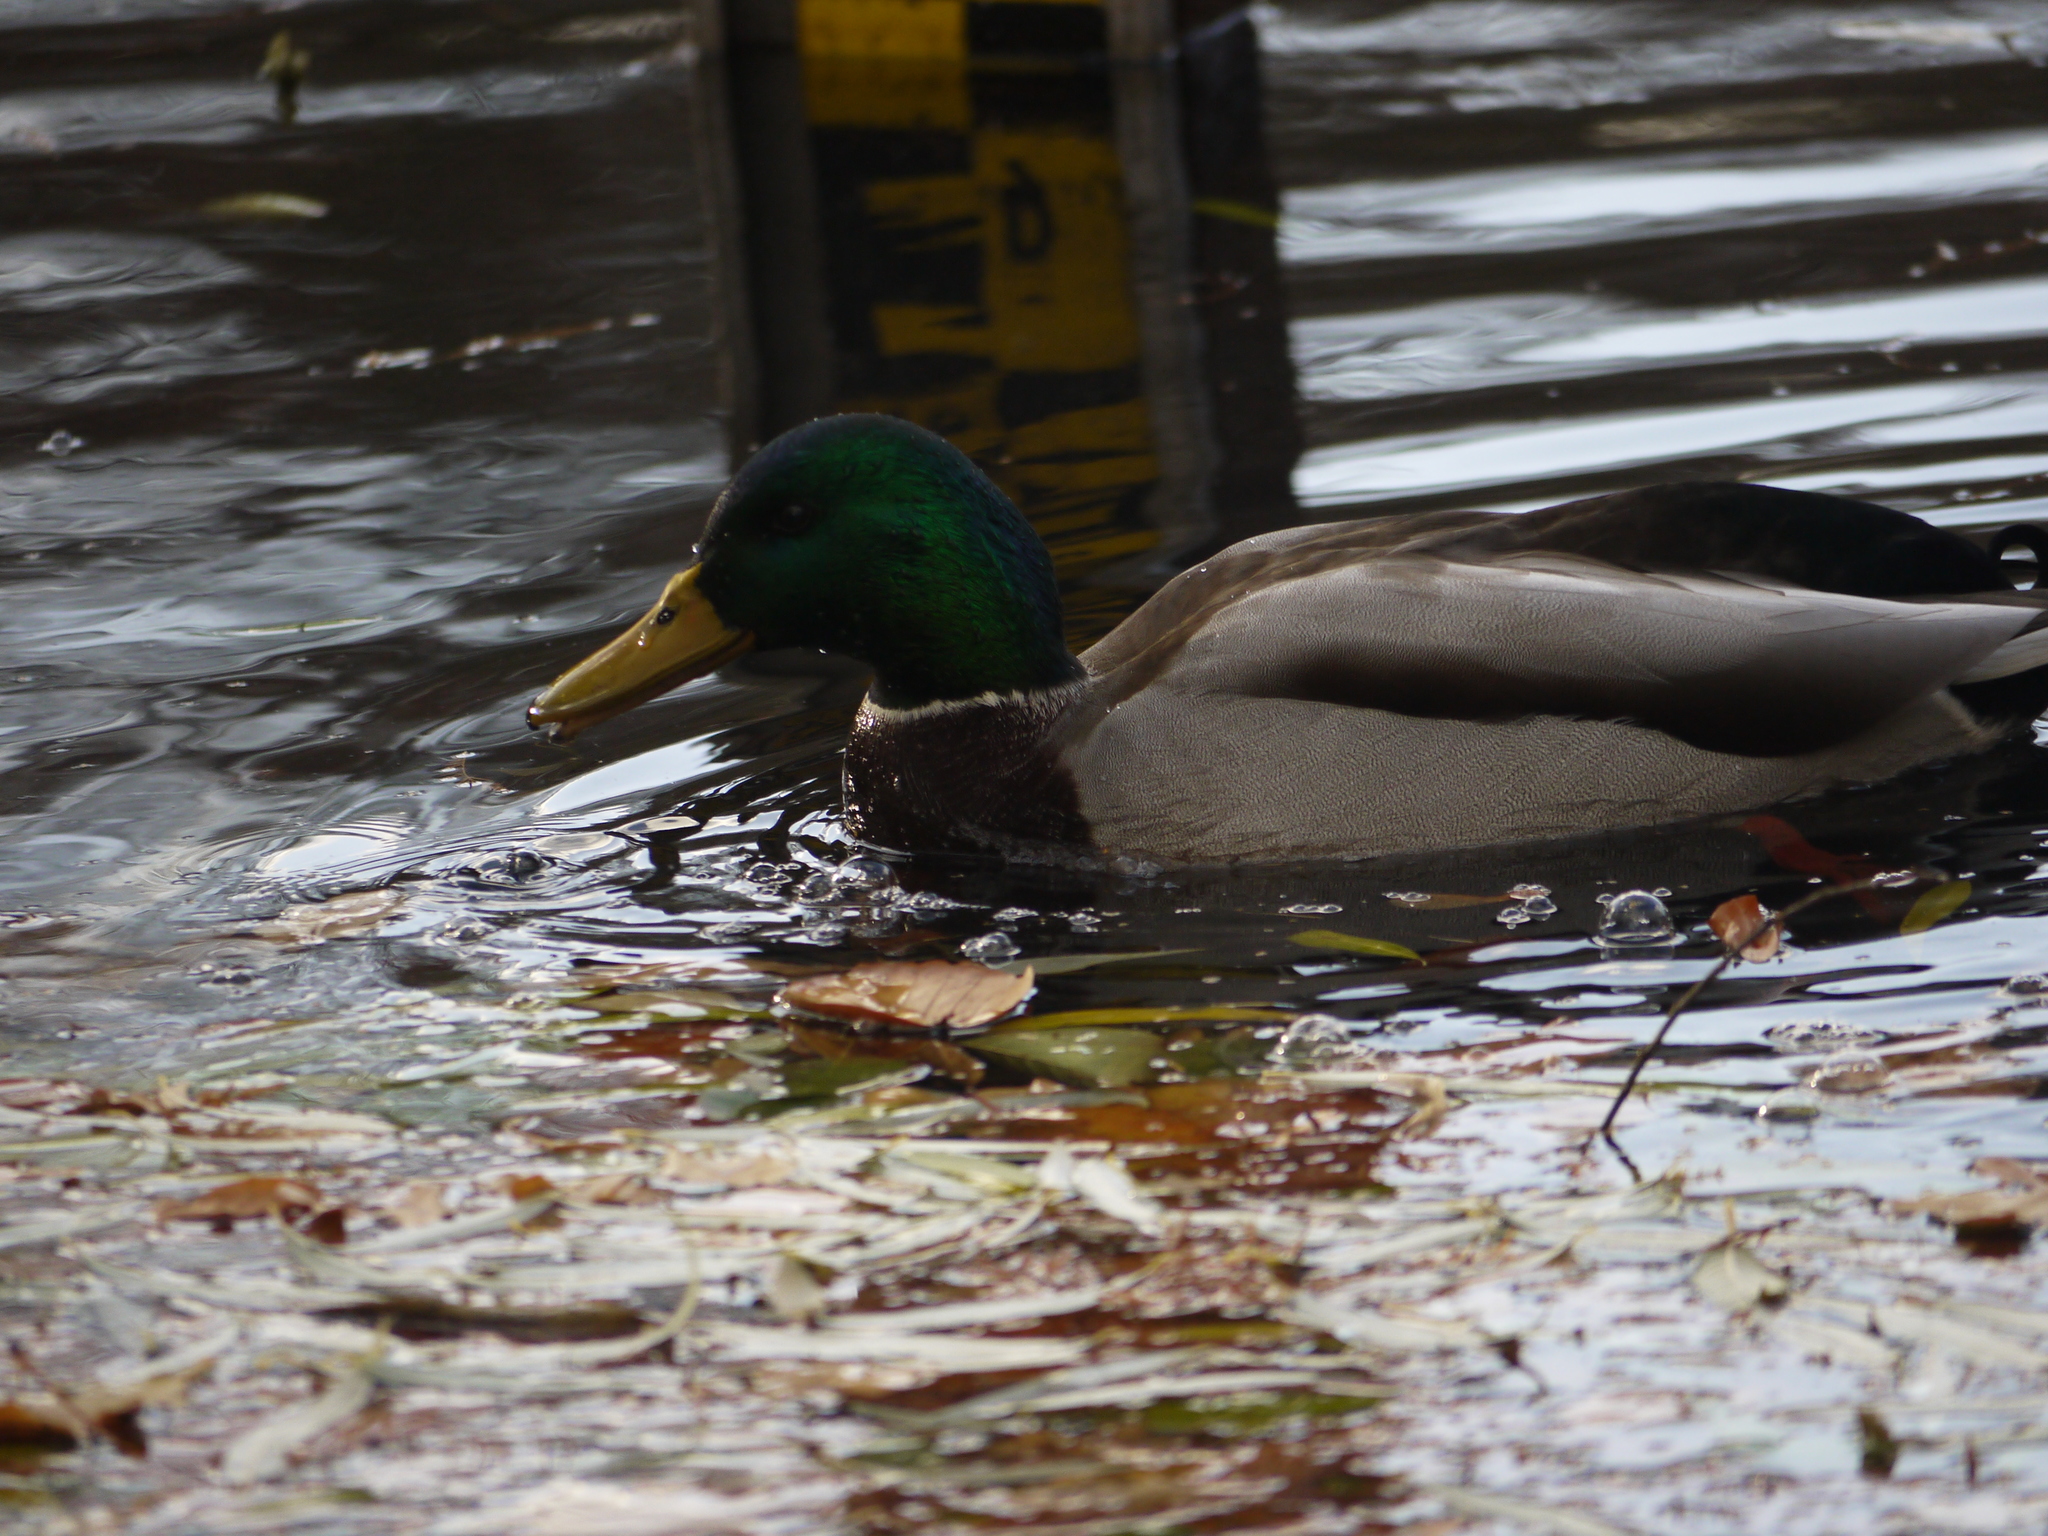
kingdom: Animalia
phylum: Chordata
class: Aves
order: Anseriformes
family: Anatidae
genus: Anas
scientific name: Anas platyrhynchos
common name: Mallard
